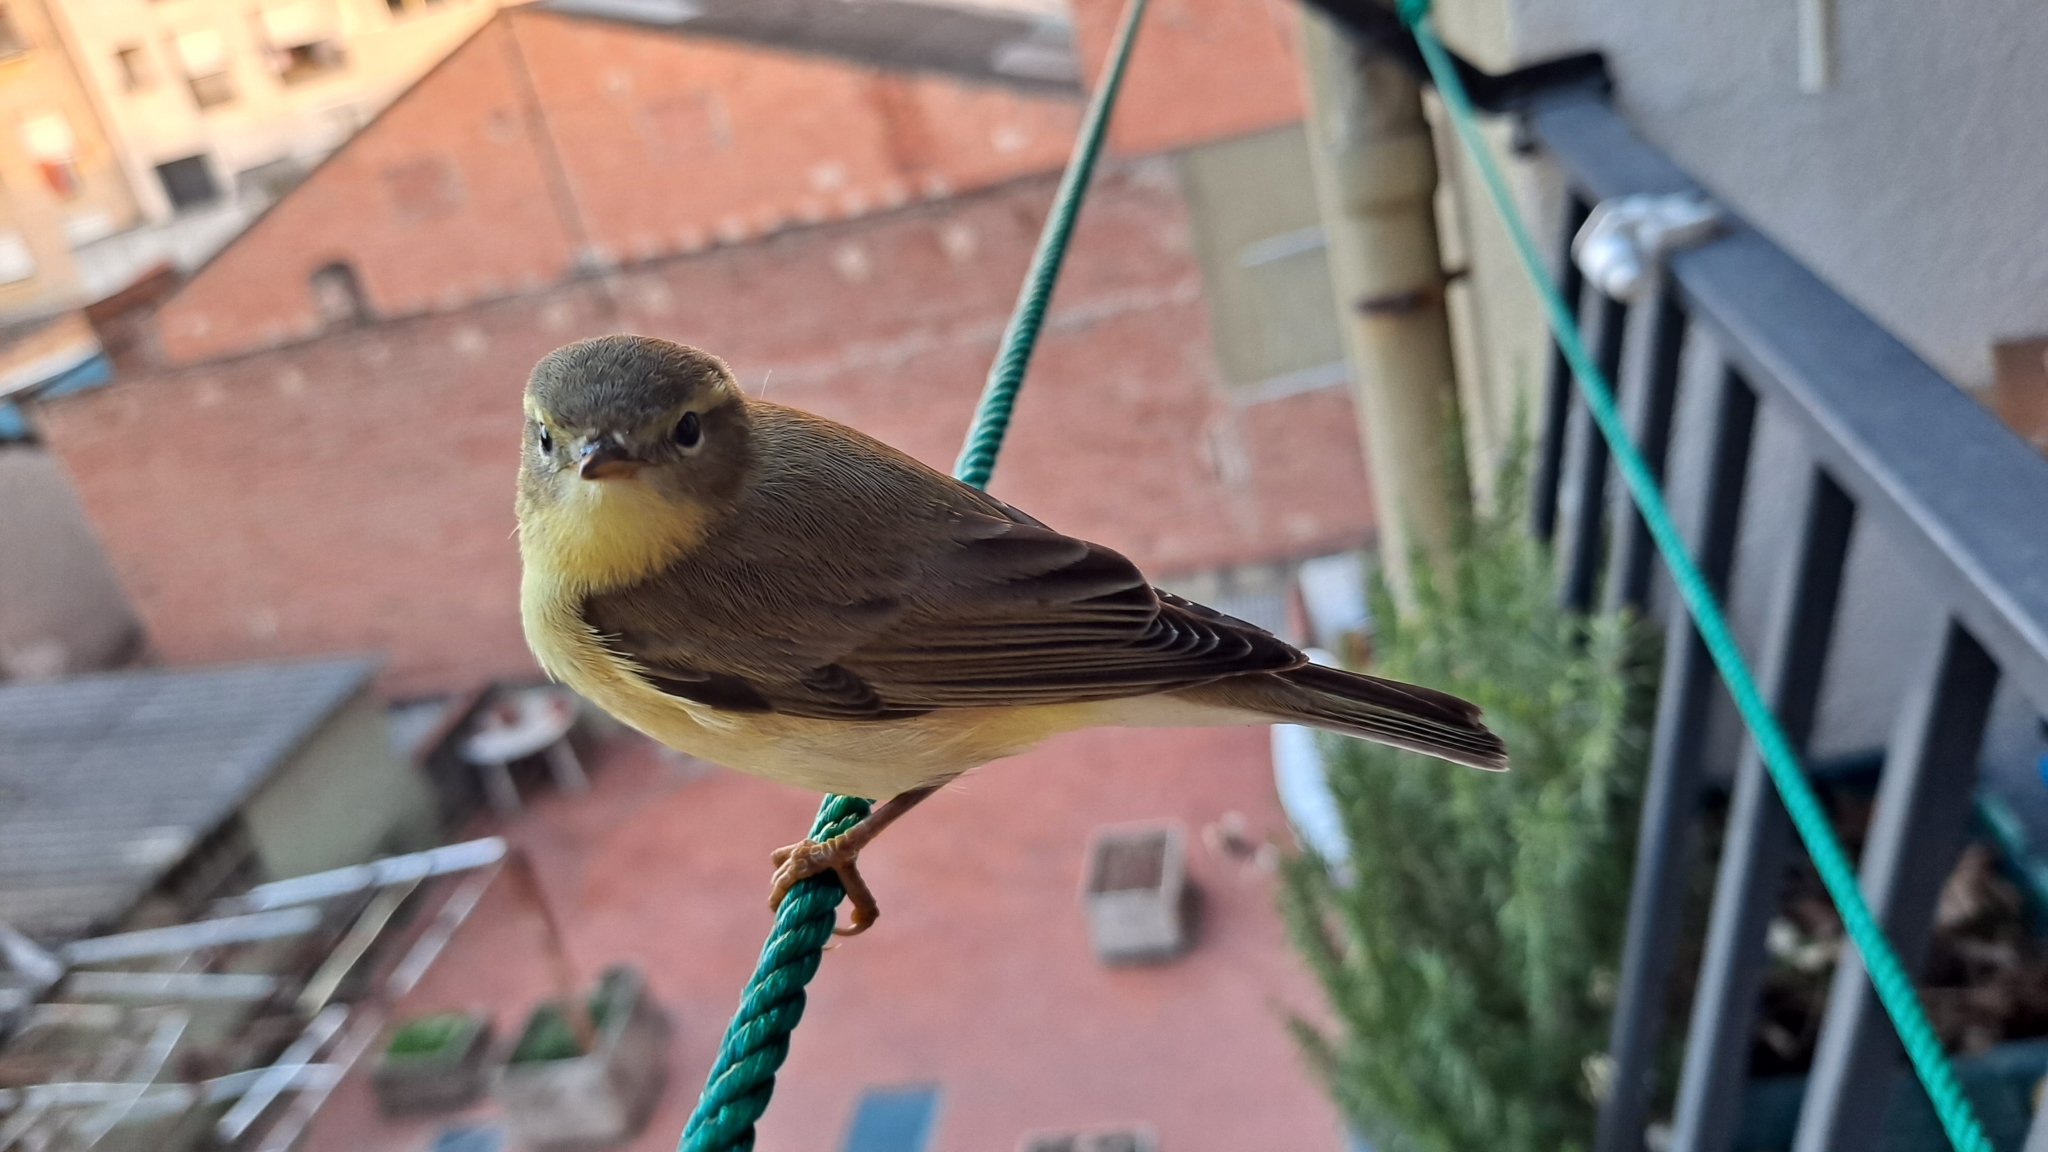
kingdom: Animalia
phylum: Chordata
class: Aves
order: Passeriformes
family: Phylloscopidae
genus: Phylloscopus
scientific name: Phylloscopus trochilus
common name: Willow warbler
